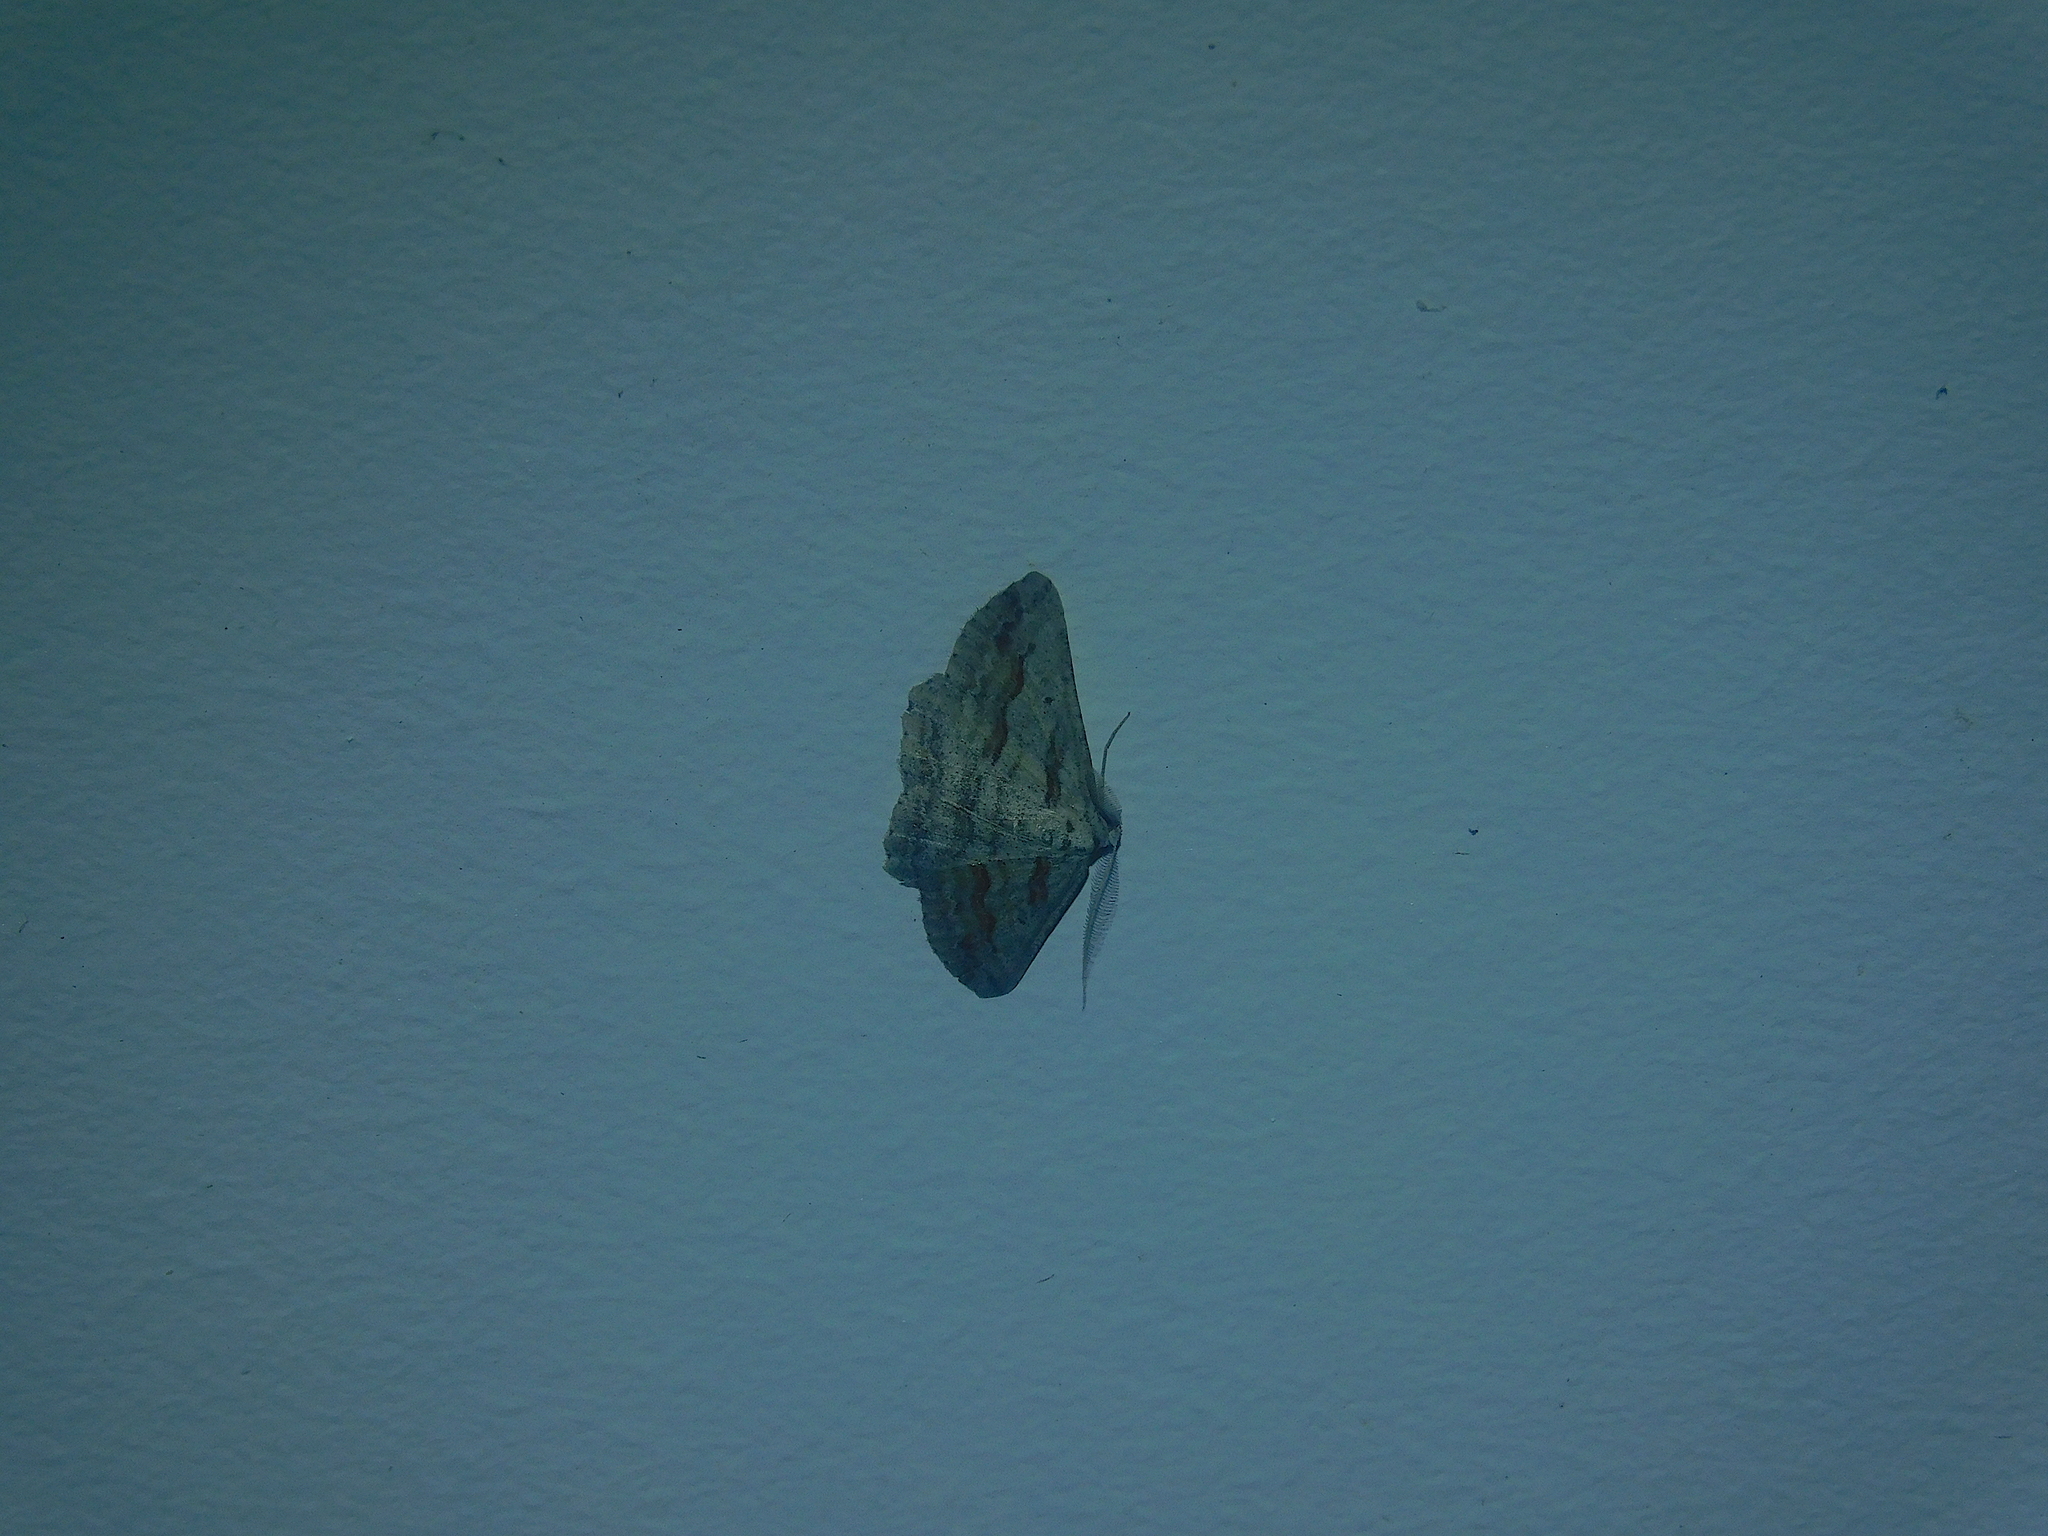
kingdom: Animalia
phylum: Arthropoda
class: Insecta
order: Lepidoptera
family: Geometridae
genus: Syneora
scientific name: Syneora mundifera
